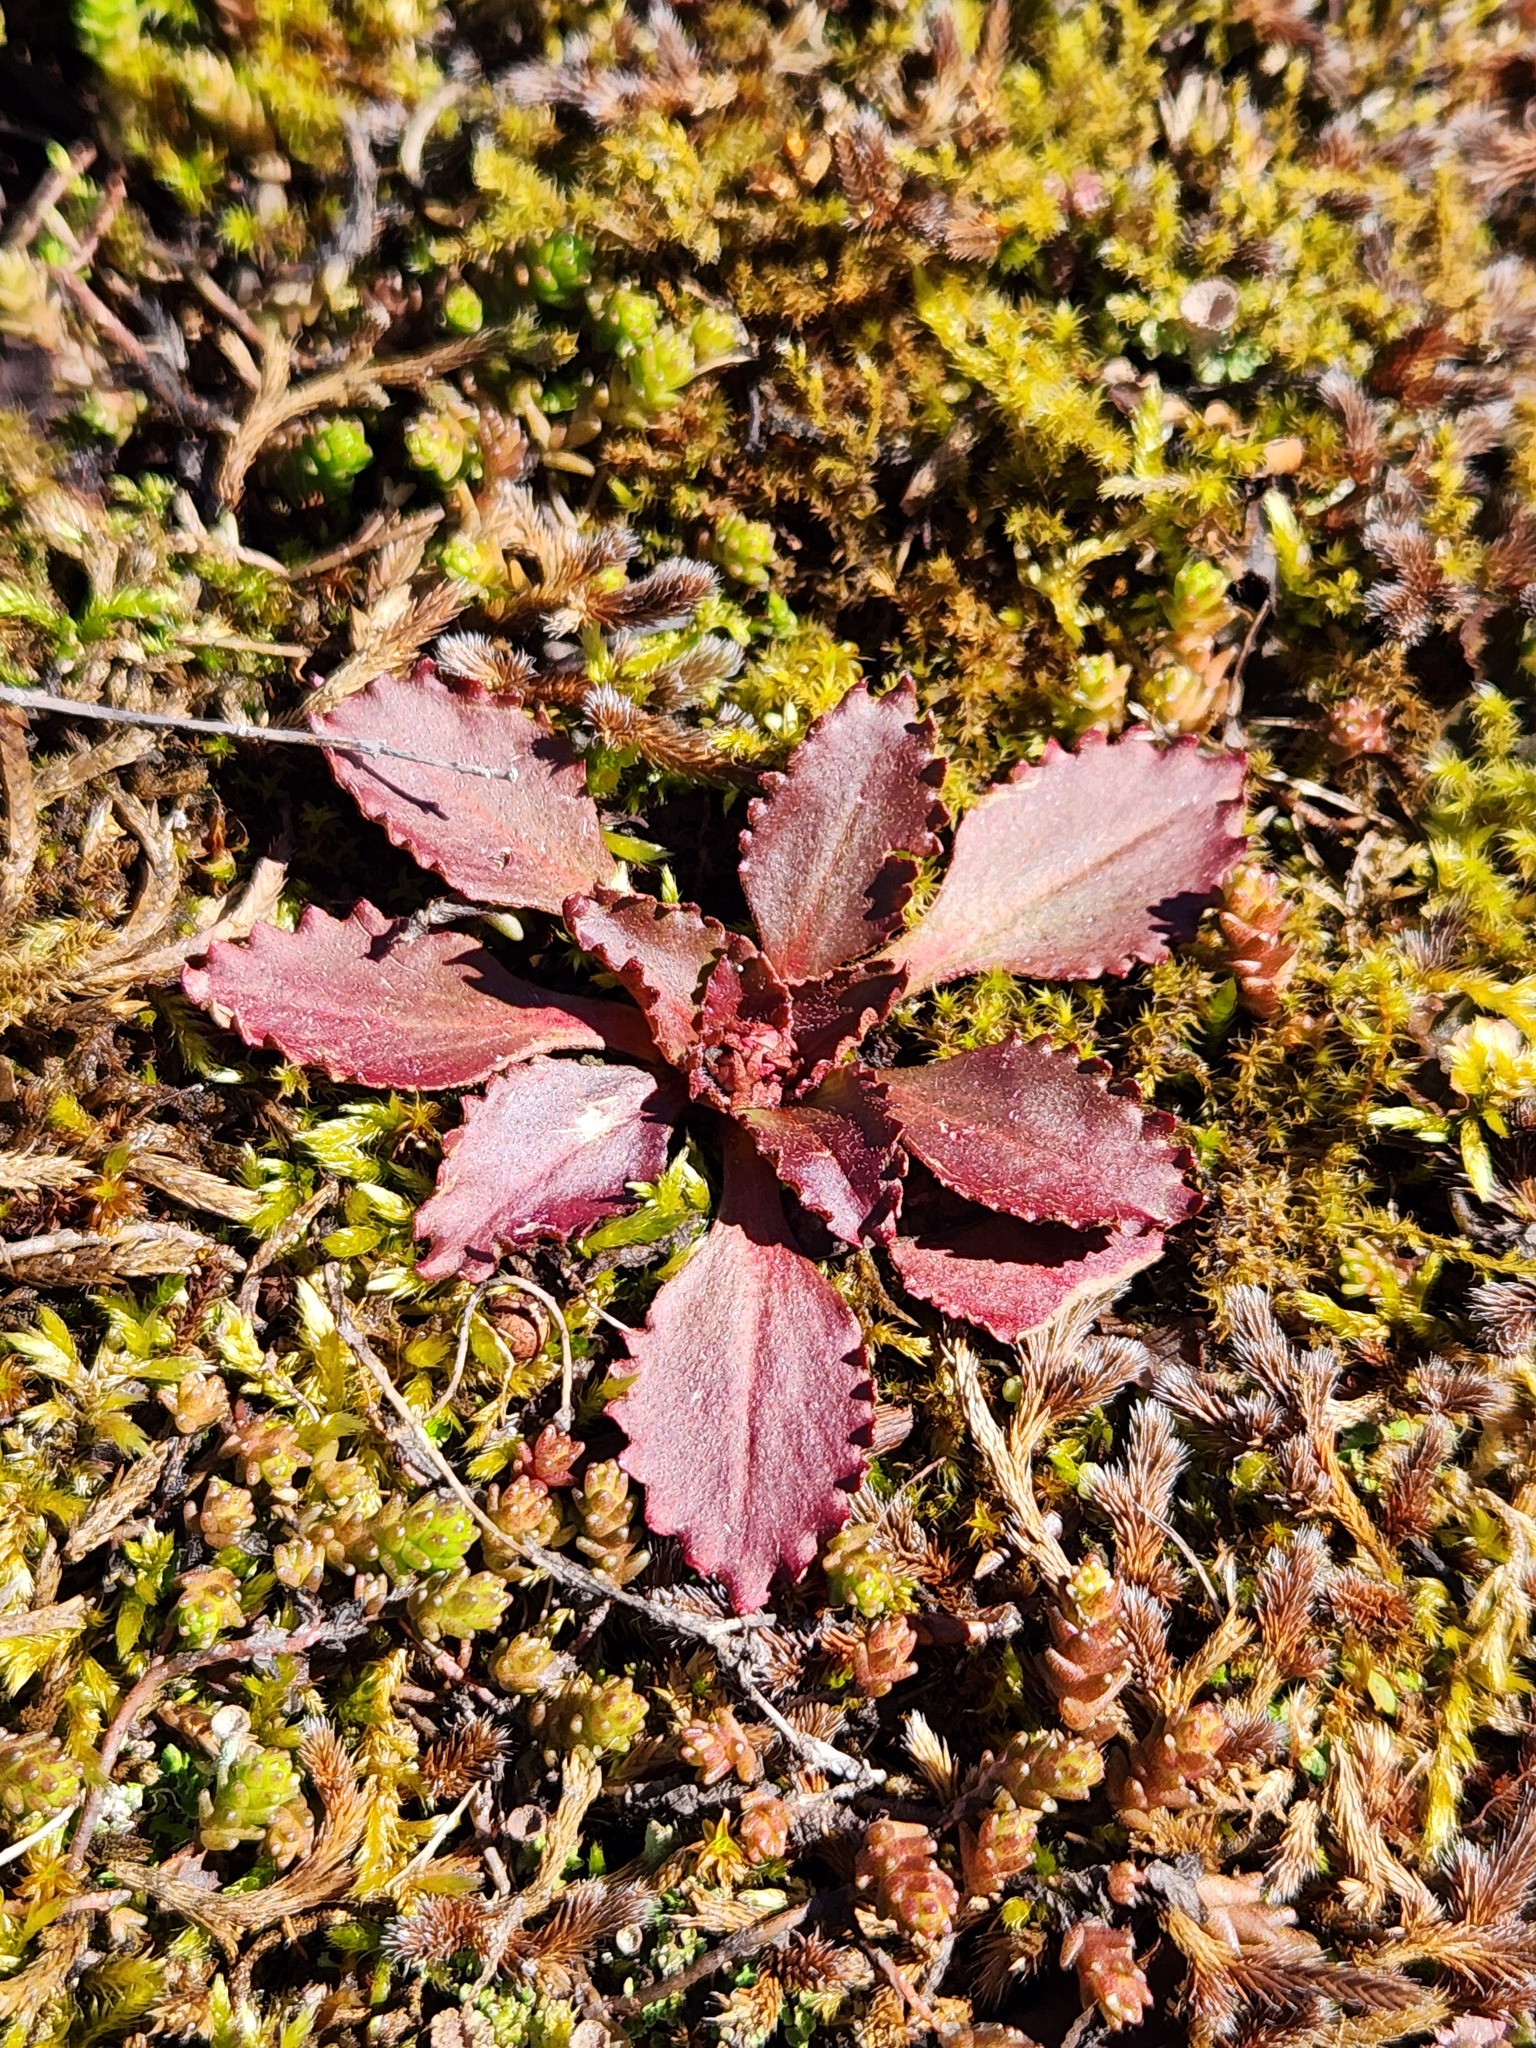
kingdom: Plantae
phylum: Tracheophyta
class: Magnoliopsida
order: Saxifragales
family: Saxifragaceae
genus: Micranthes
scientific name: Micranthes virginiensis
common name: Early saxifrage
